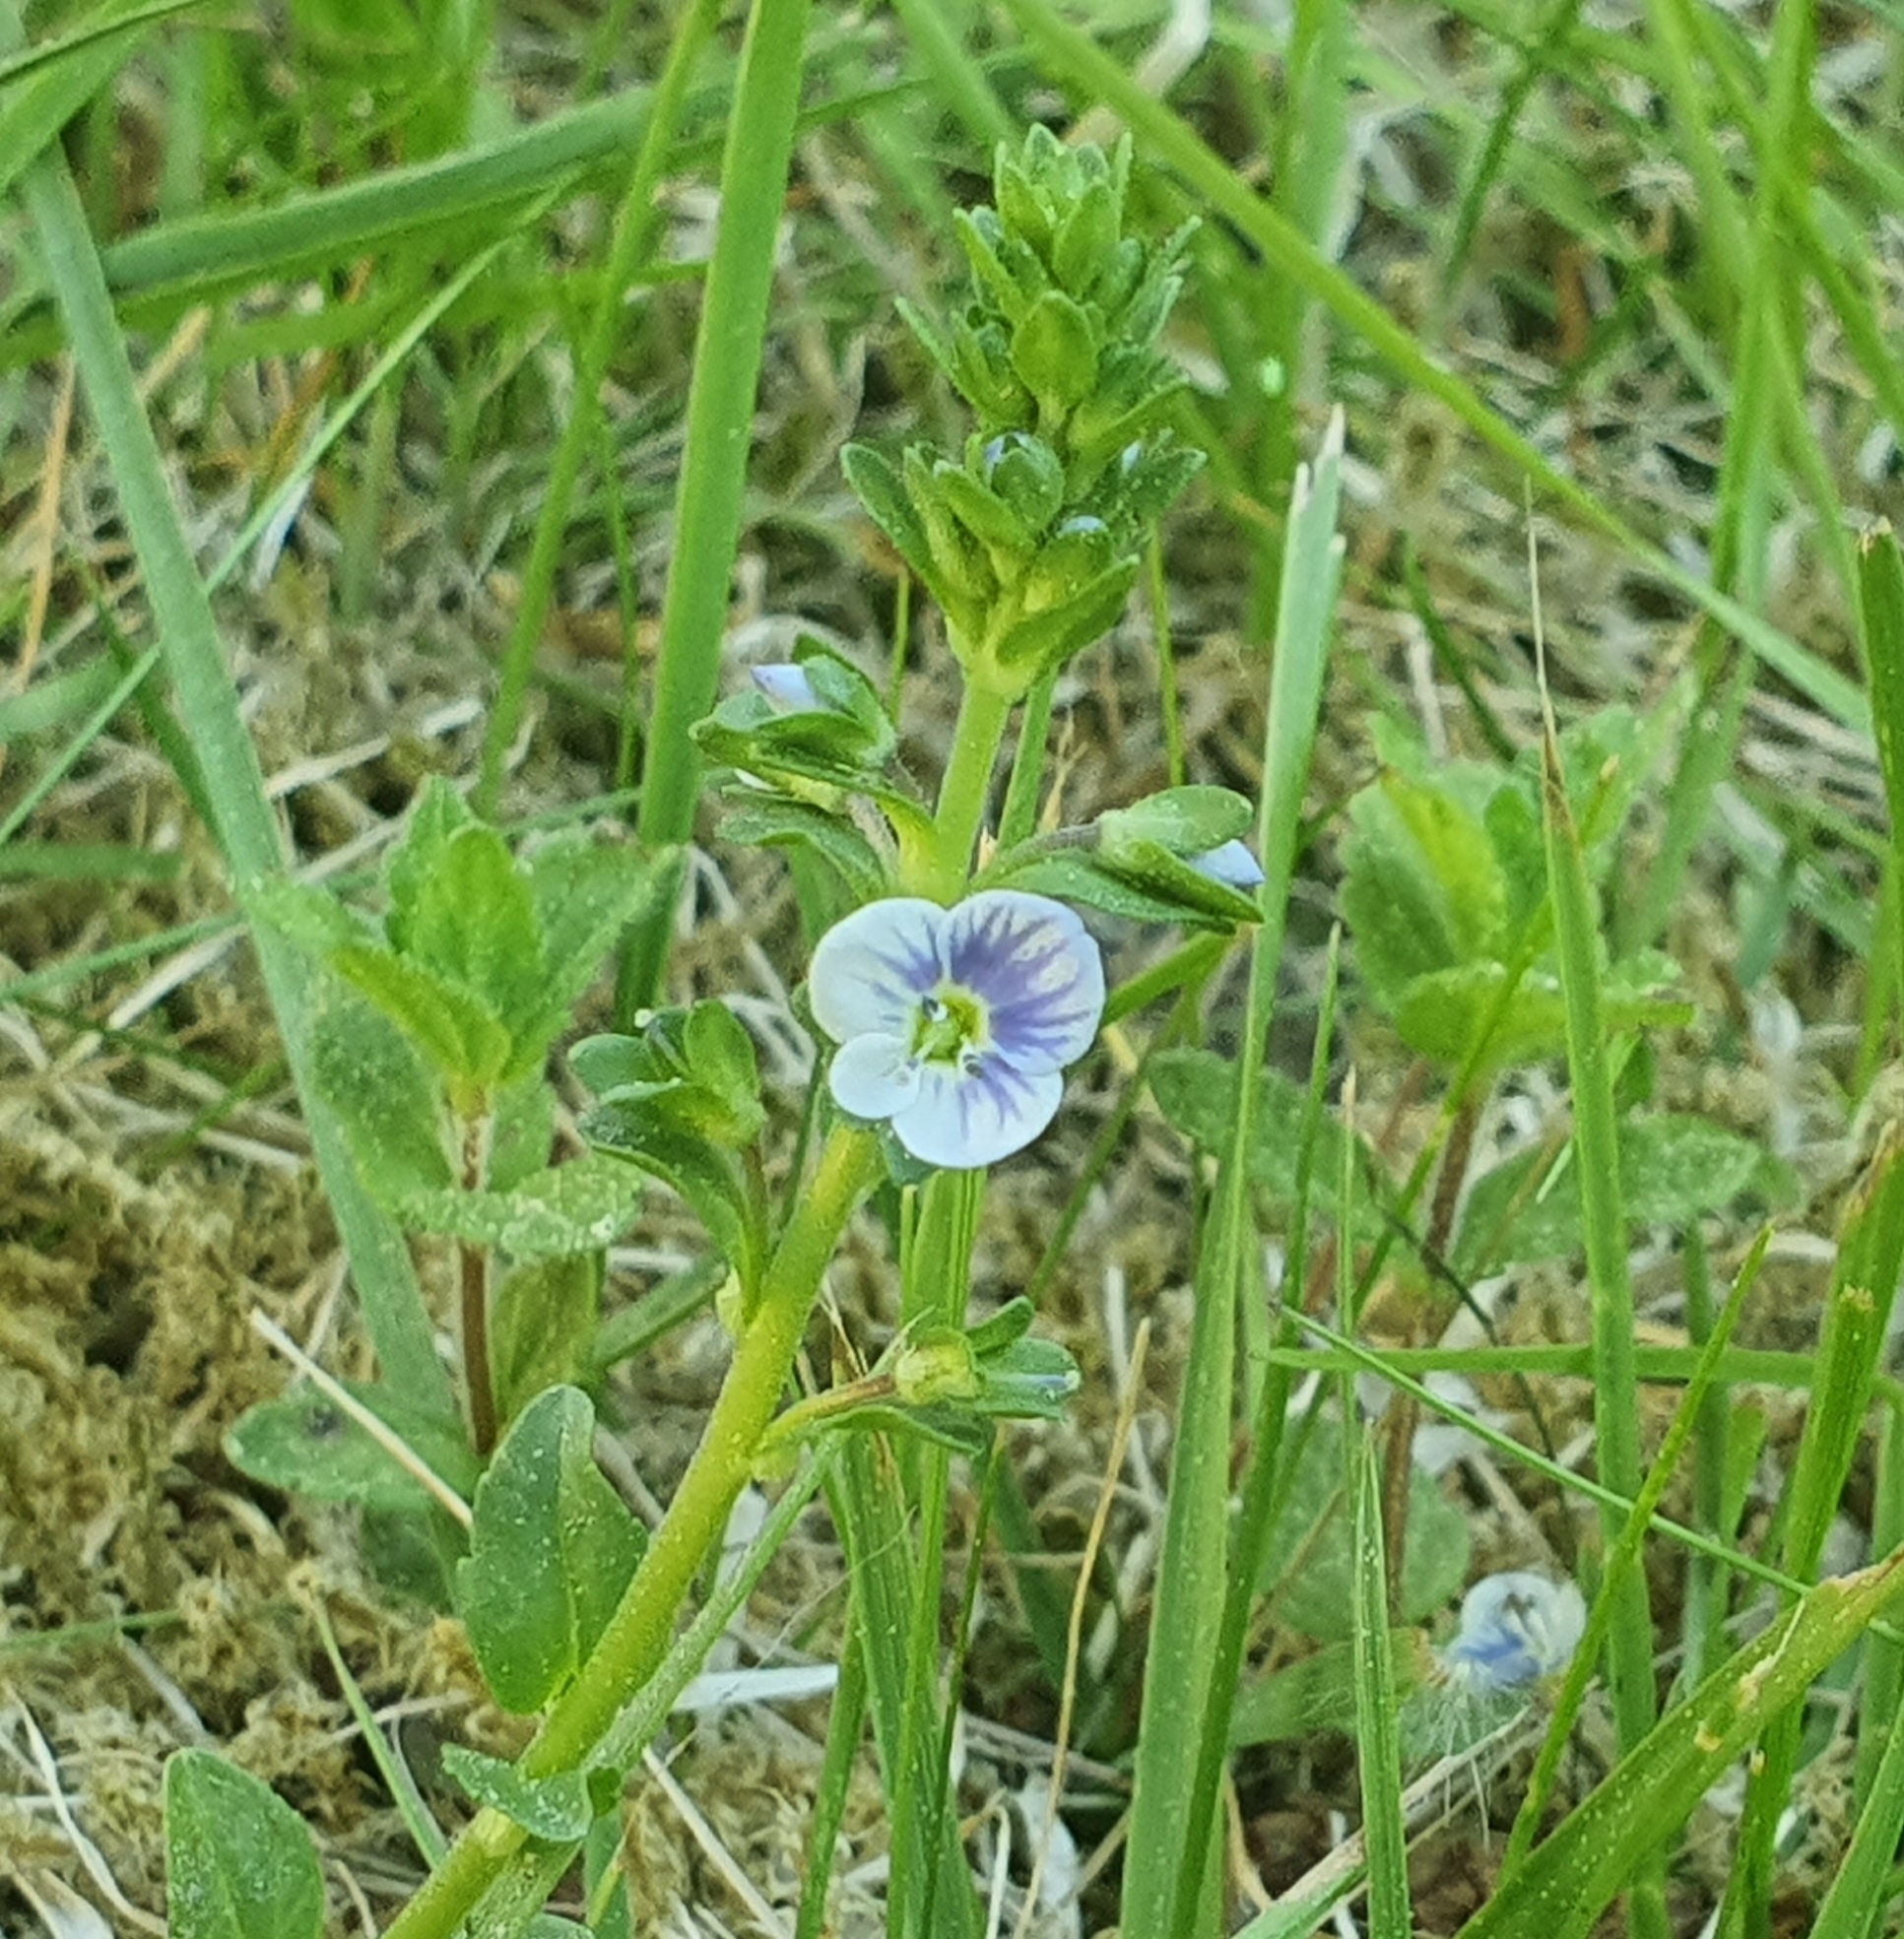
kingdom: Plantae
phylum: Tracheophyta
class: Magnoliopsida
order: Lamiales
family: Plantaginaceae
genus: Veronica
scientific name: Veronica serpyllifolia
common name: Thyme-leaved speedwell
